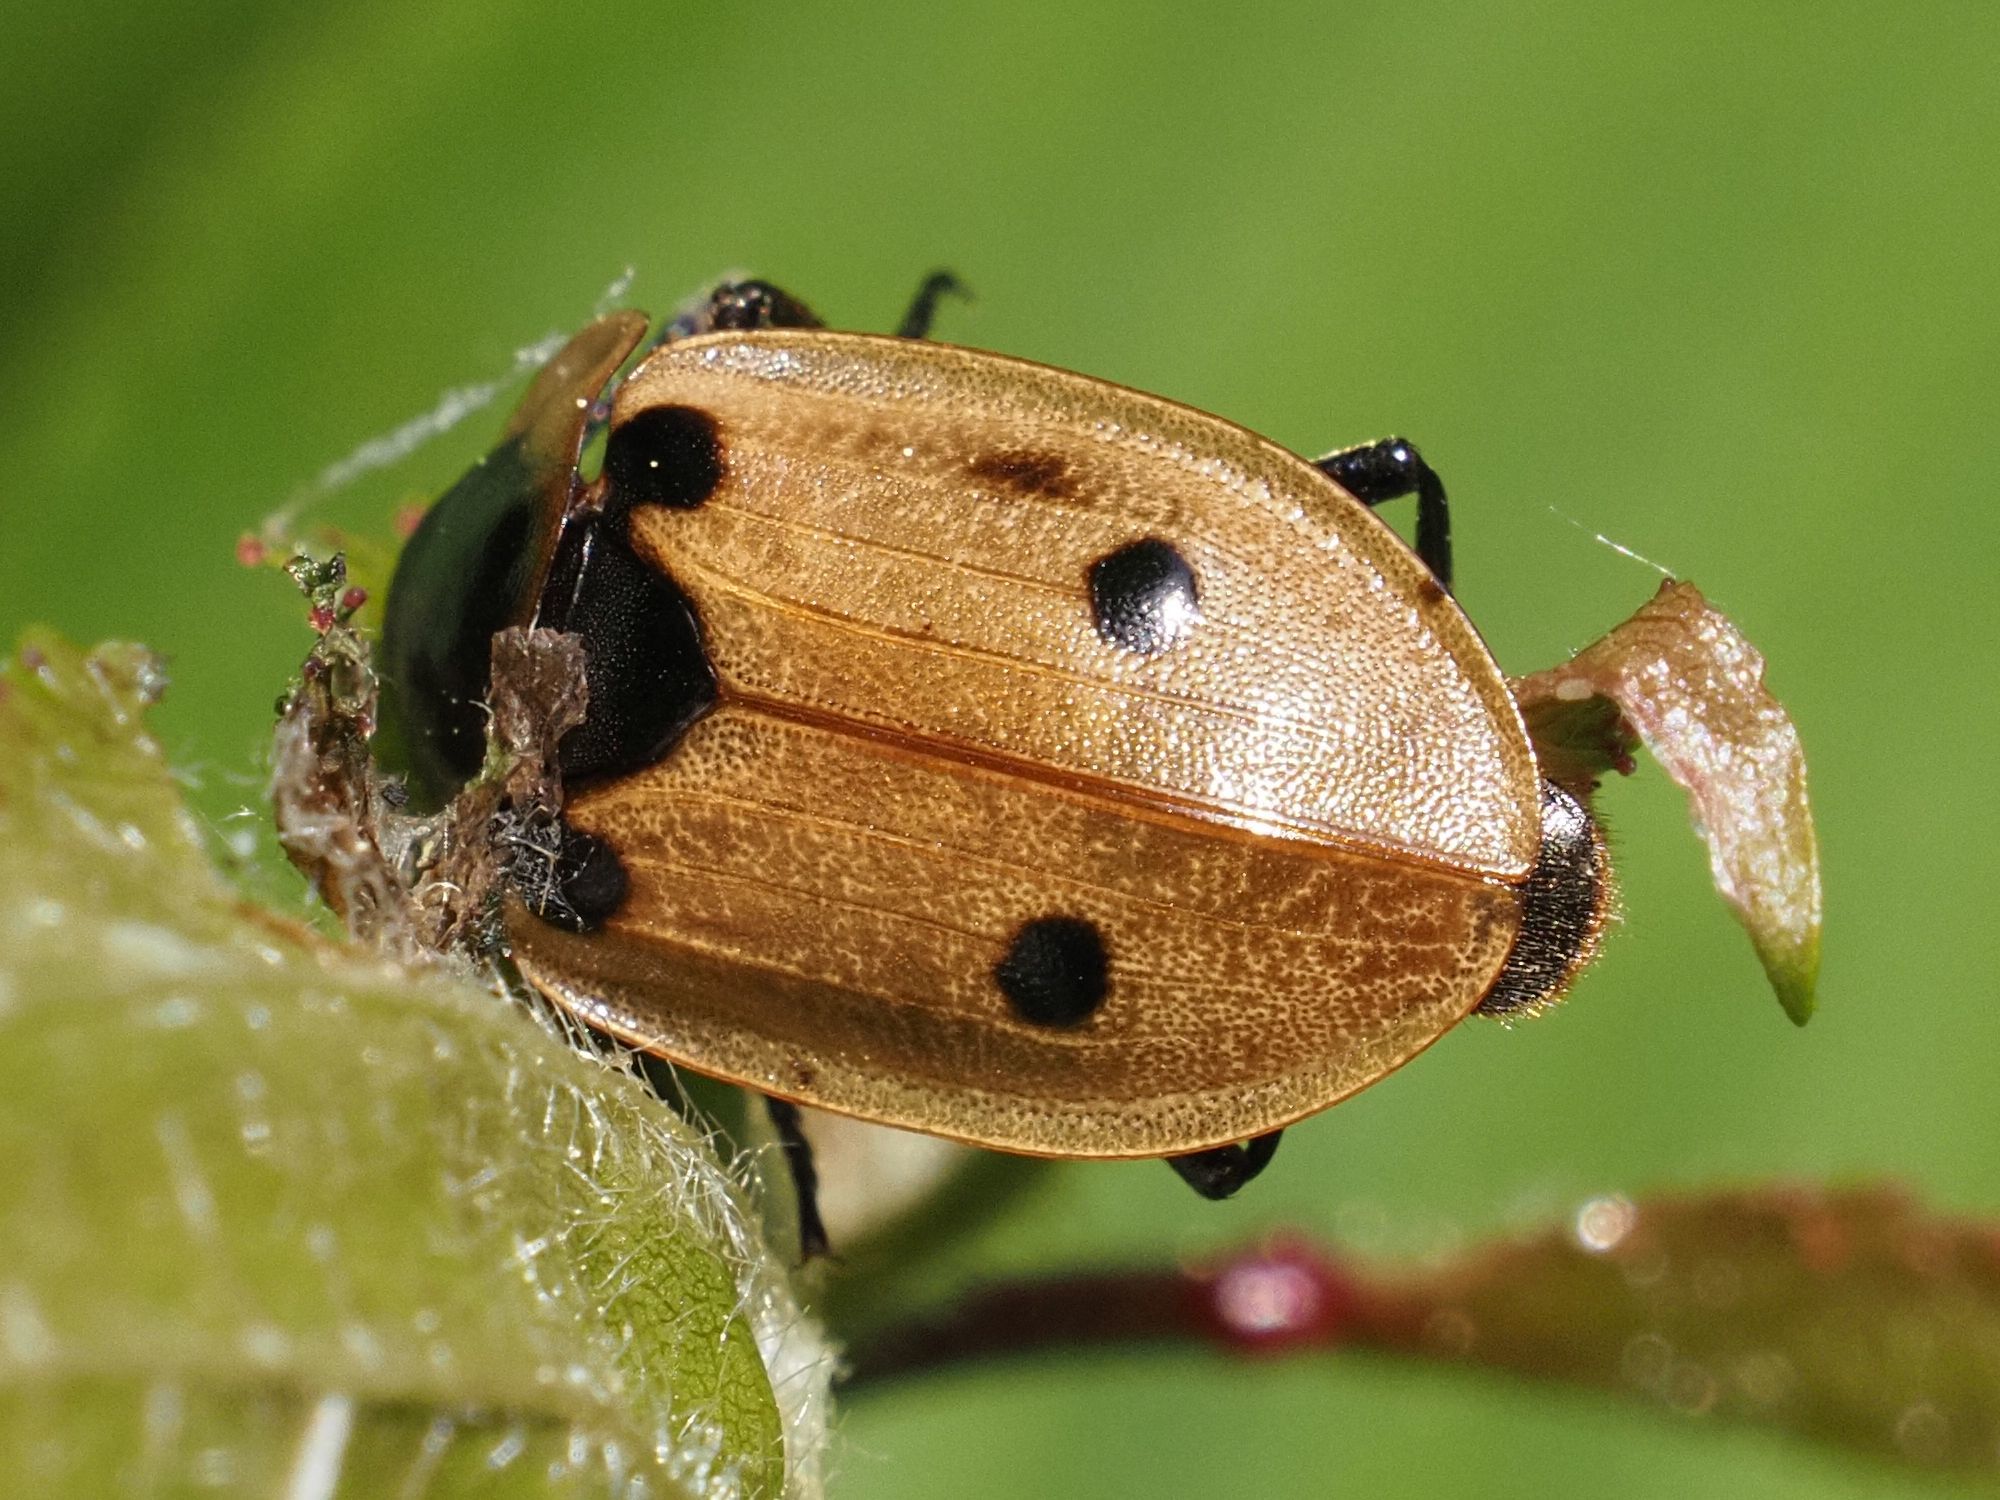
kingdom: Animalia
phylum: Arthropoda
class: Insecta
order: Coleoptera
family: Staphylinidae
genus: Dendroxena
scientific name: Dendroxena quadrimaculata
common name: Carrion beetle
